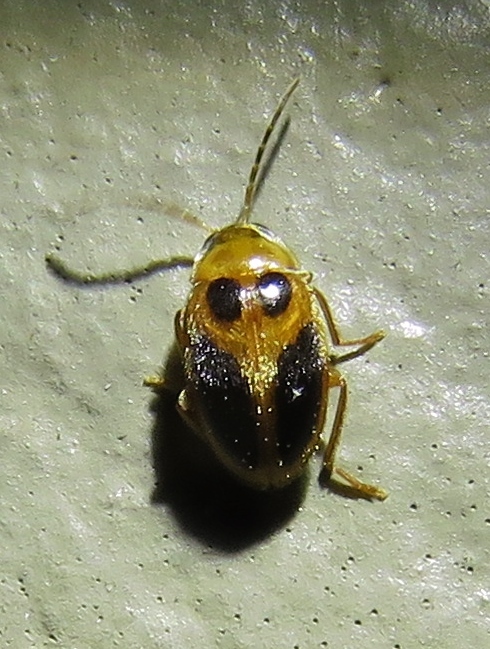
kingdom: Animalia
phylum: Arthropoda
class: Insecta
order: Coleoptera
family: Scirtidae
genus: Sacodes
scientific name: Sacodes pulchella
